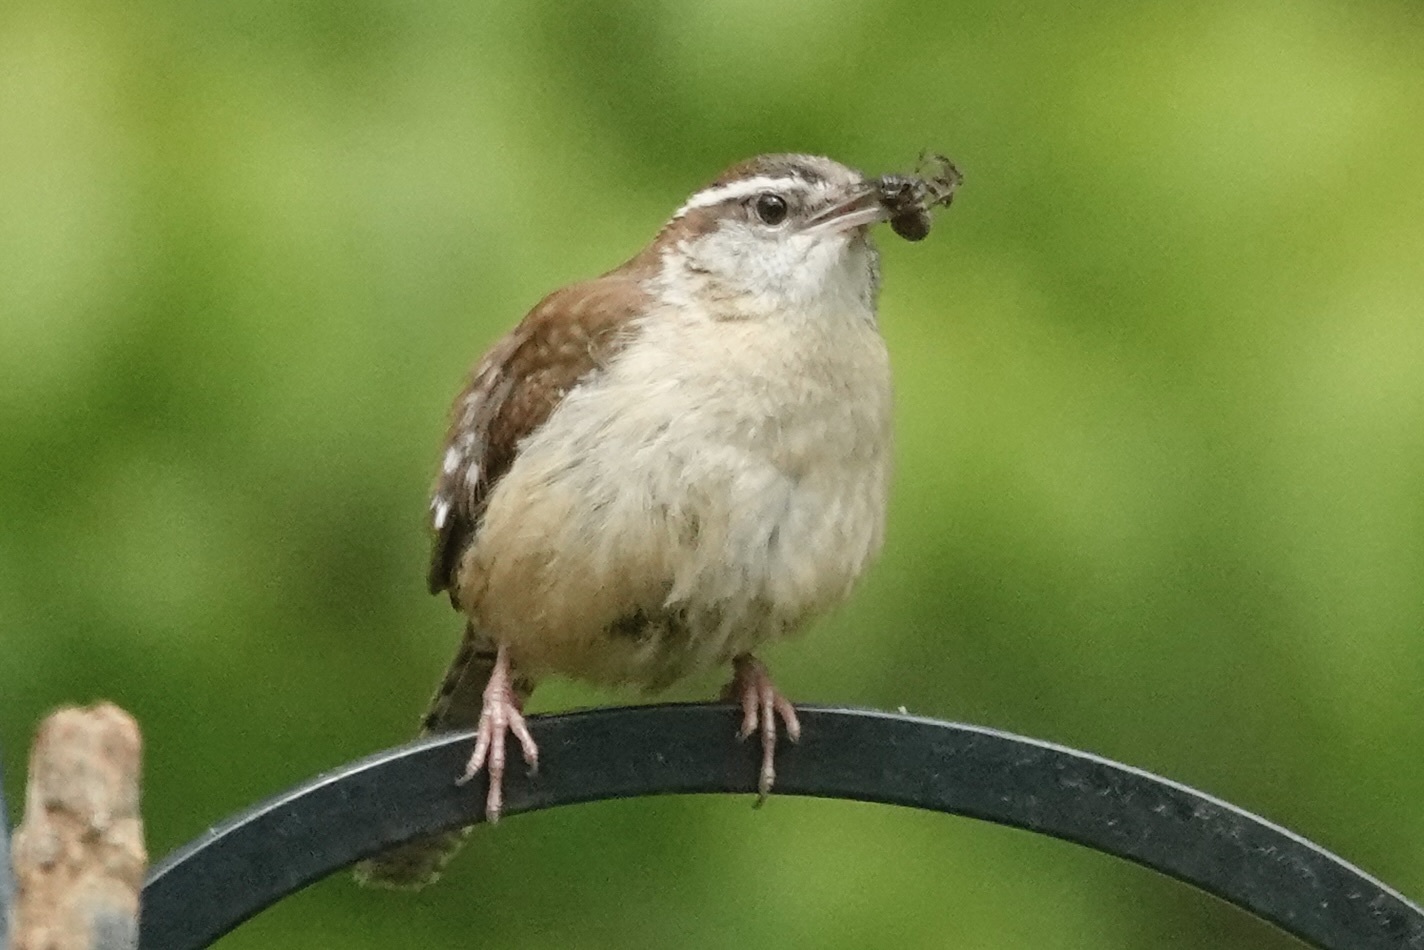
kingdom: Animalia
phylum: Chordata
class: Aves
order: Passeriformes
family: Troglodytidae
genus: Thryothorus
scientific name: Thryothorus ludovicianus
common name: Carolina wren
